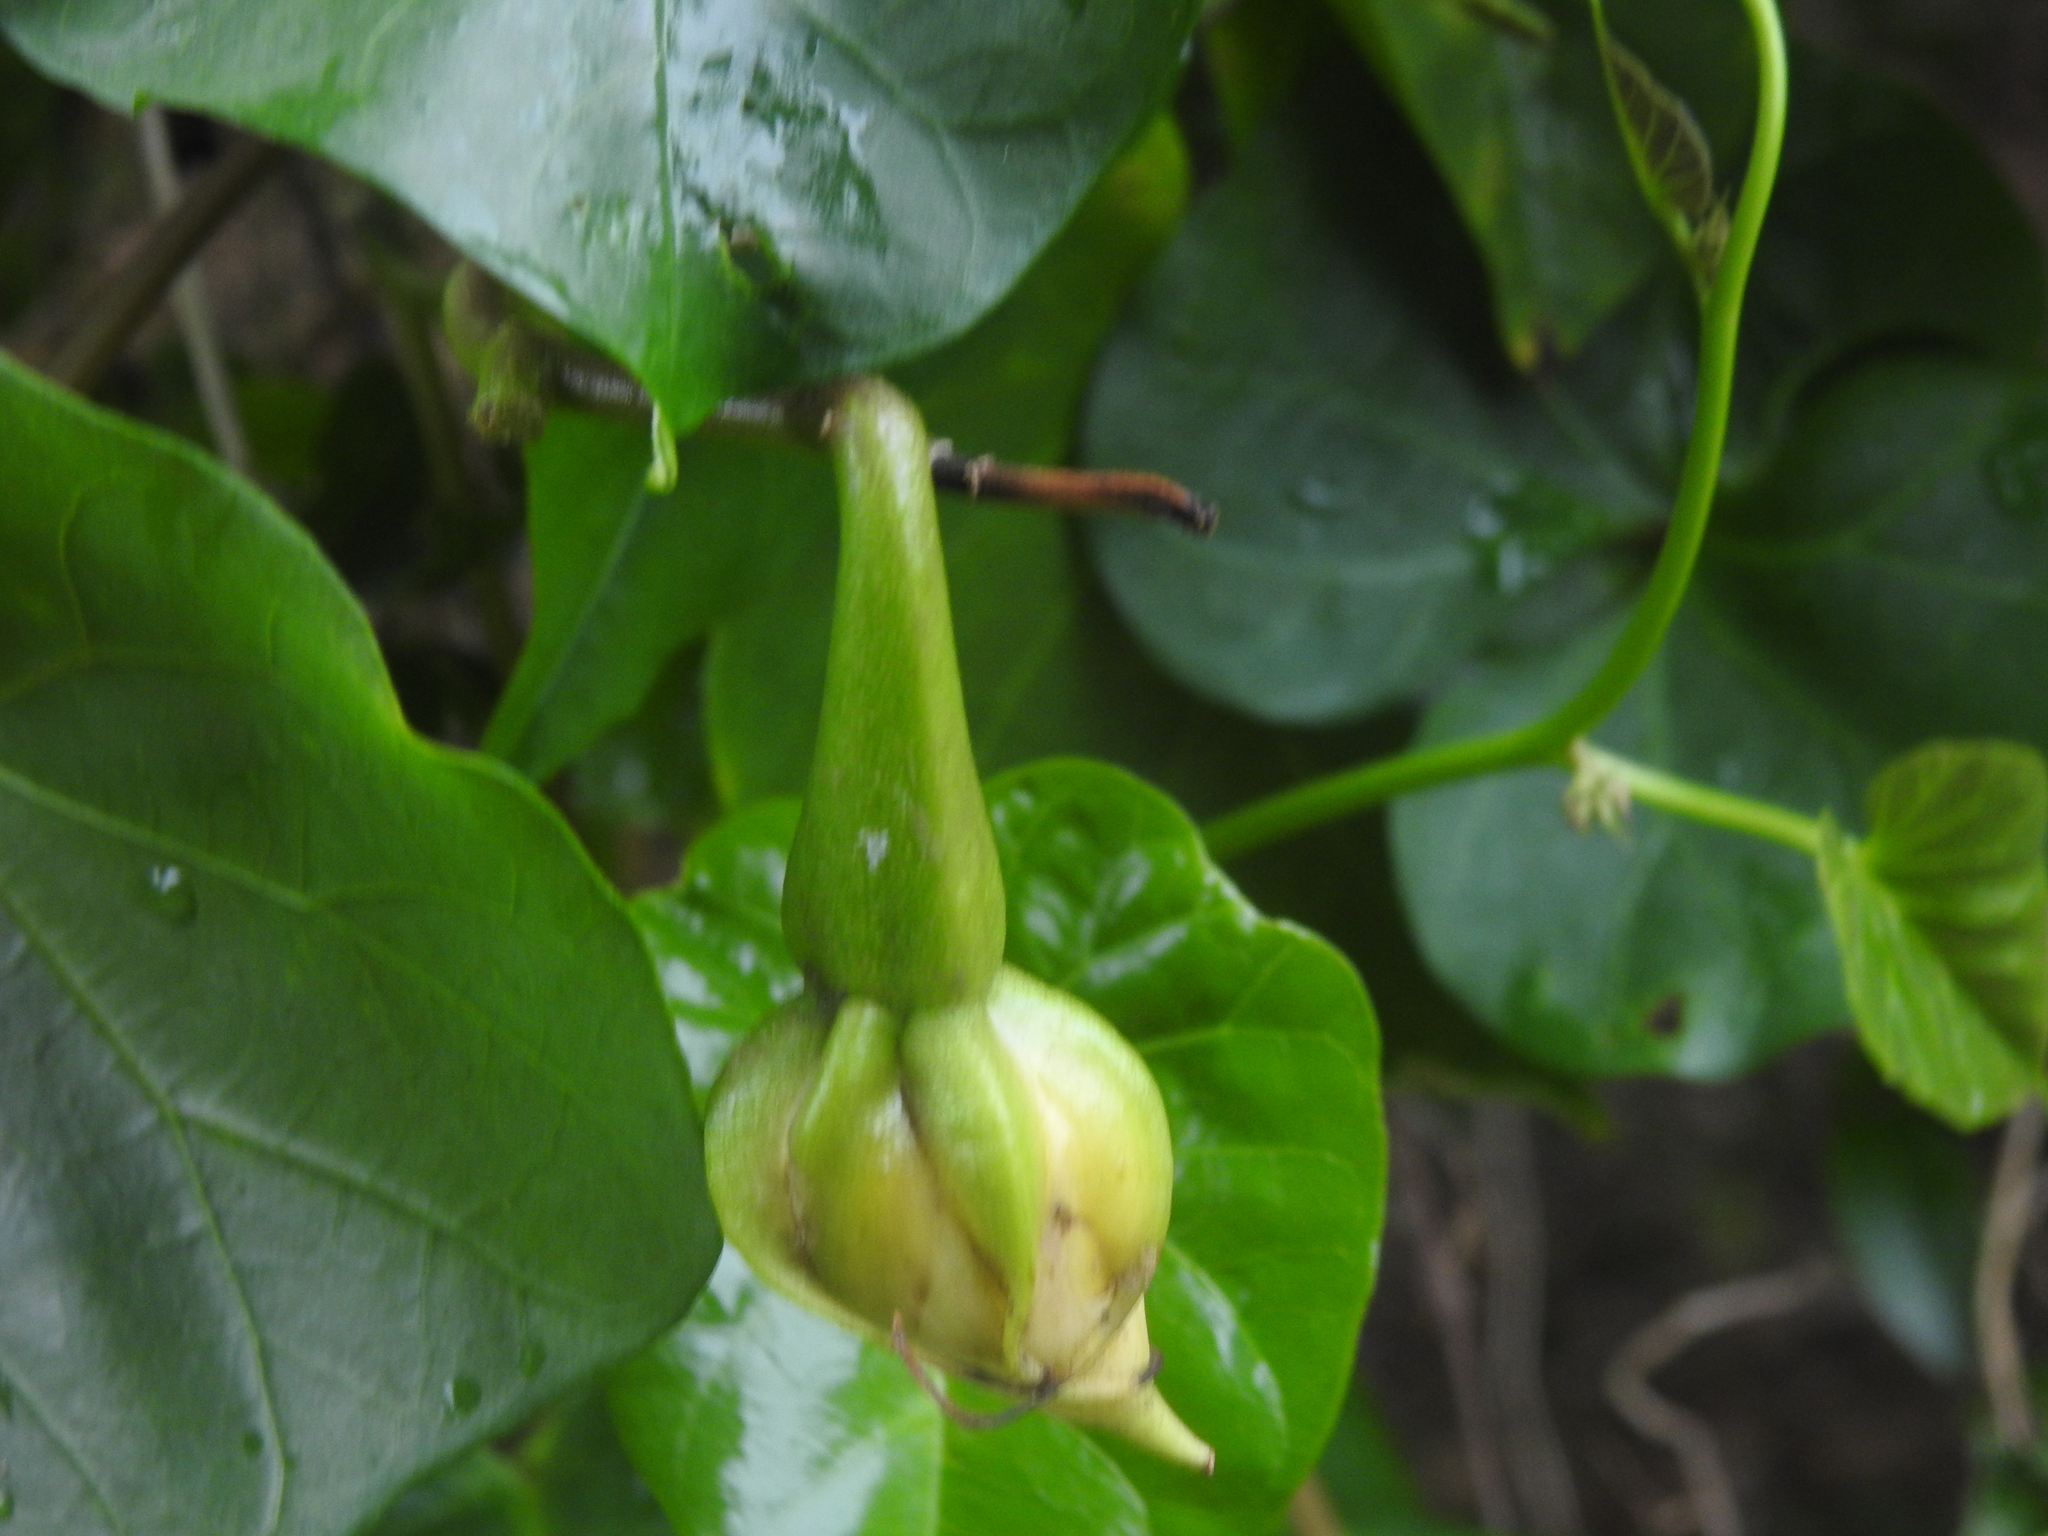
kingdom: Plantae
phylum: Tracheophyta
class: Magnoliopsida
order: Solanales
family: Convolvulaceae
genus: Ipomoea
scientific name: Ipomoea alba
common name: Moonflower
